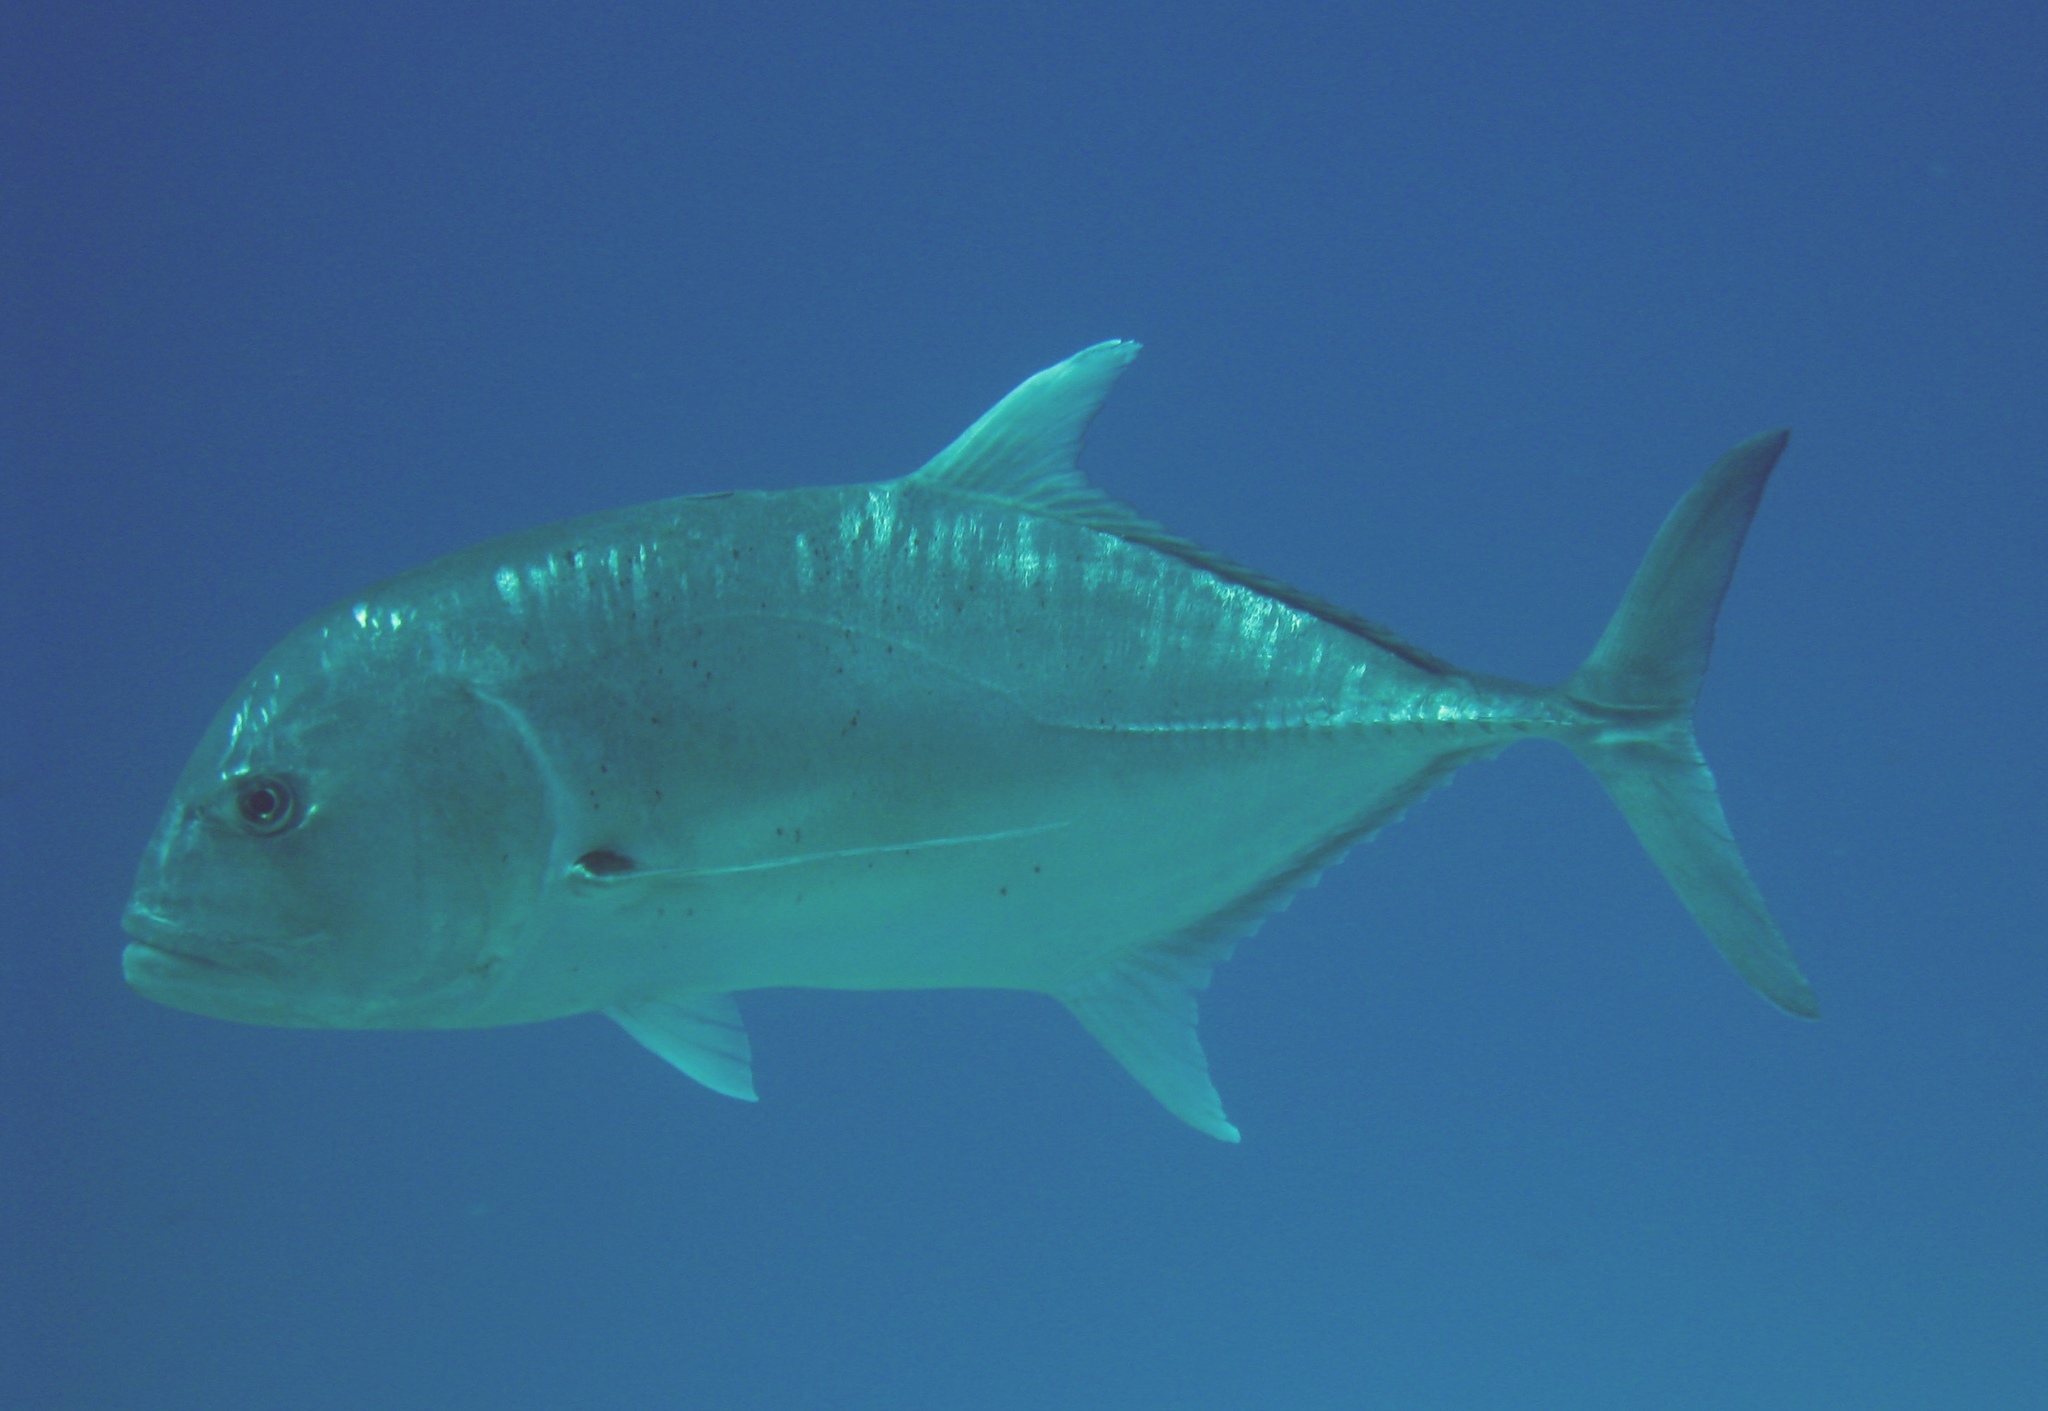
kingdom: Animalia
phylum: Chordata
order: Perciformes
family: Carangidae
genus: Caranx
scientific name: Caranx ignobilis
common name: Giant trevally
